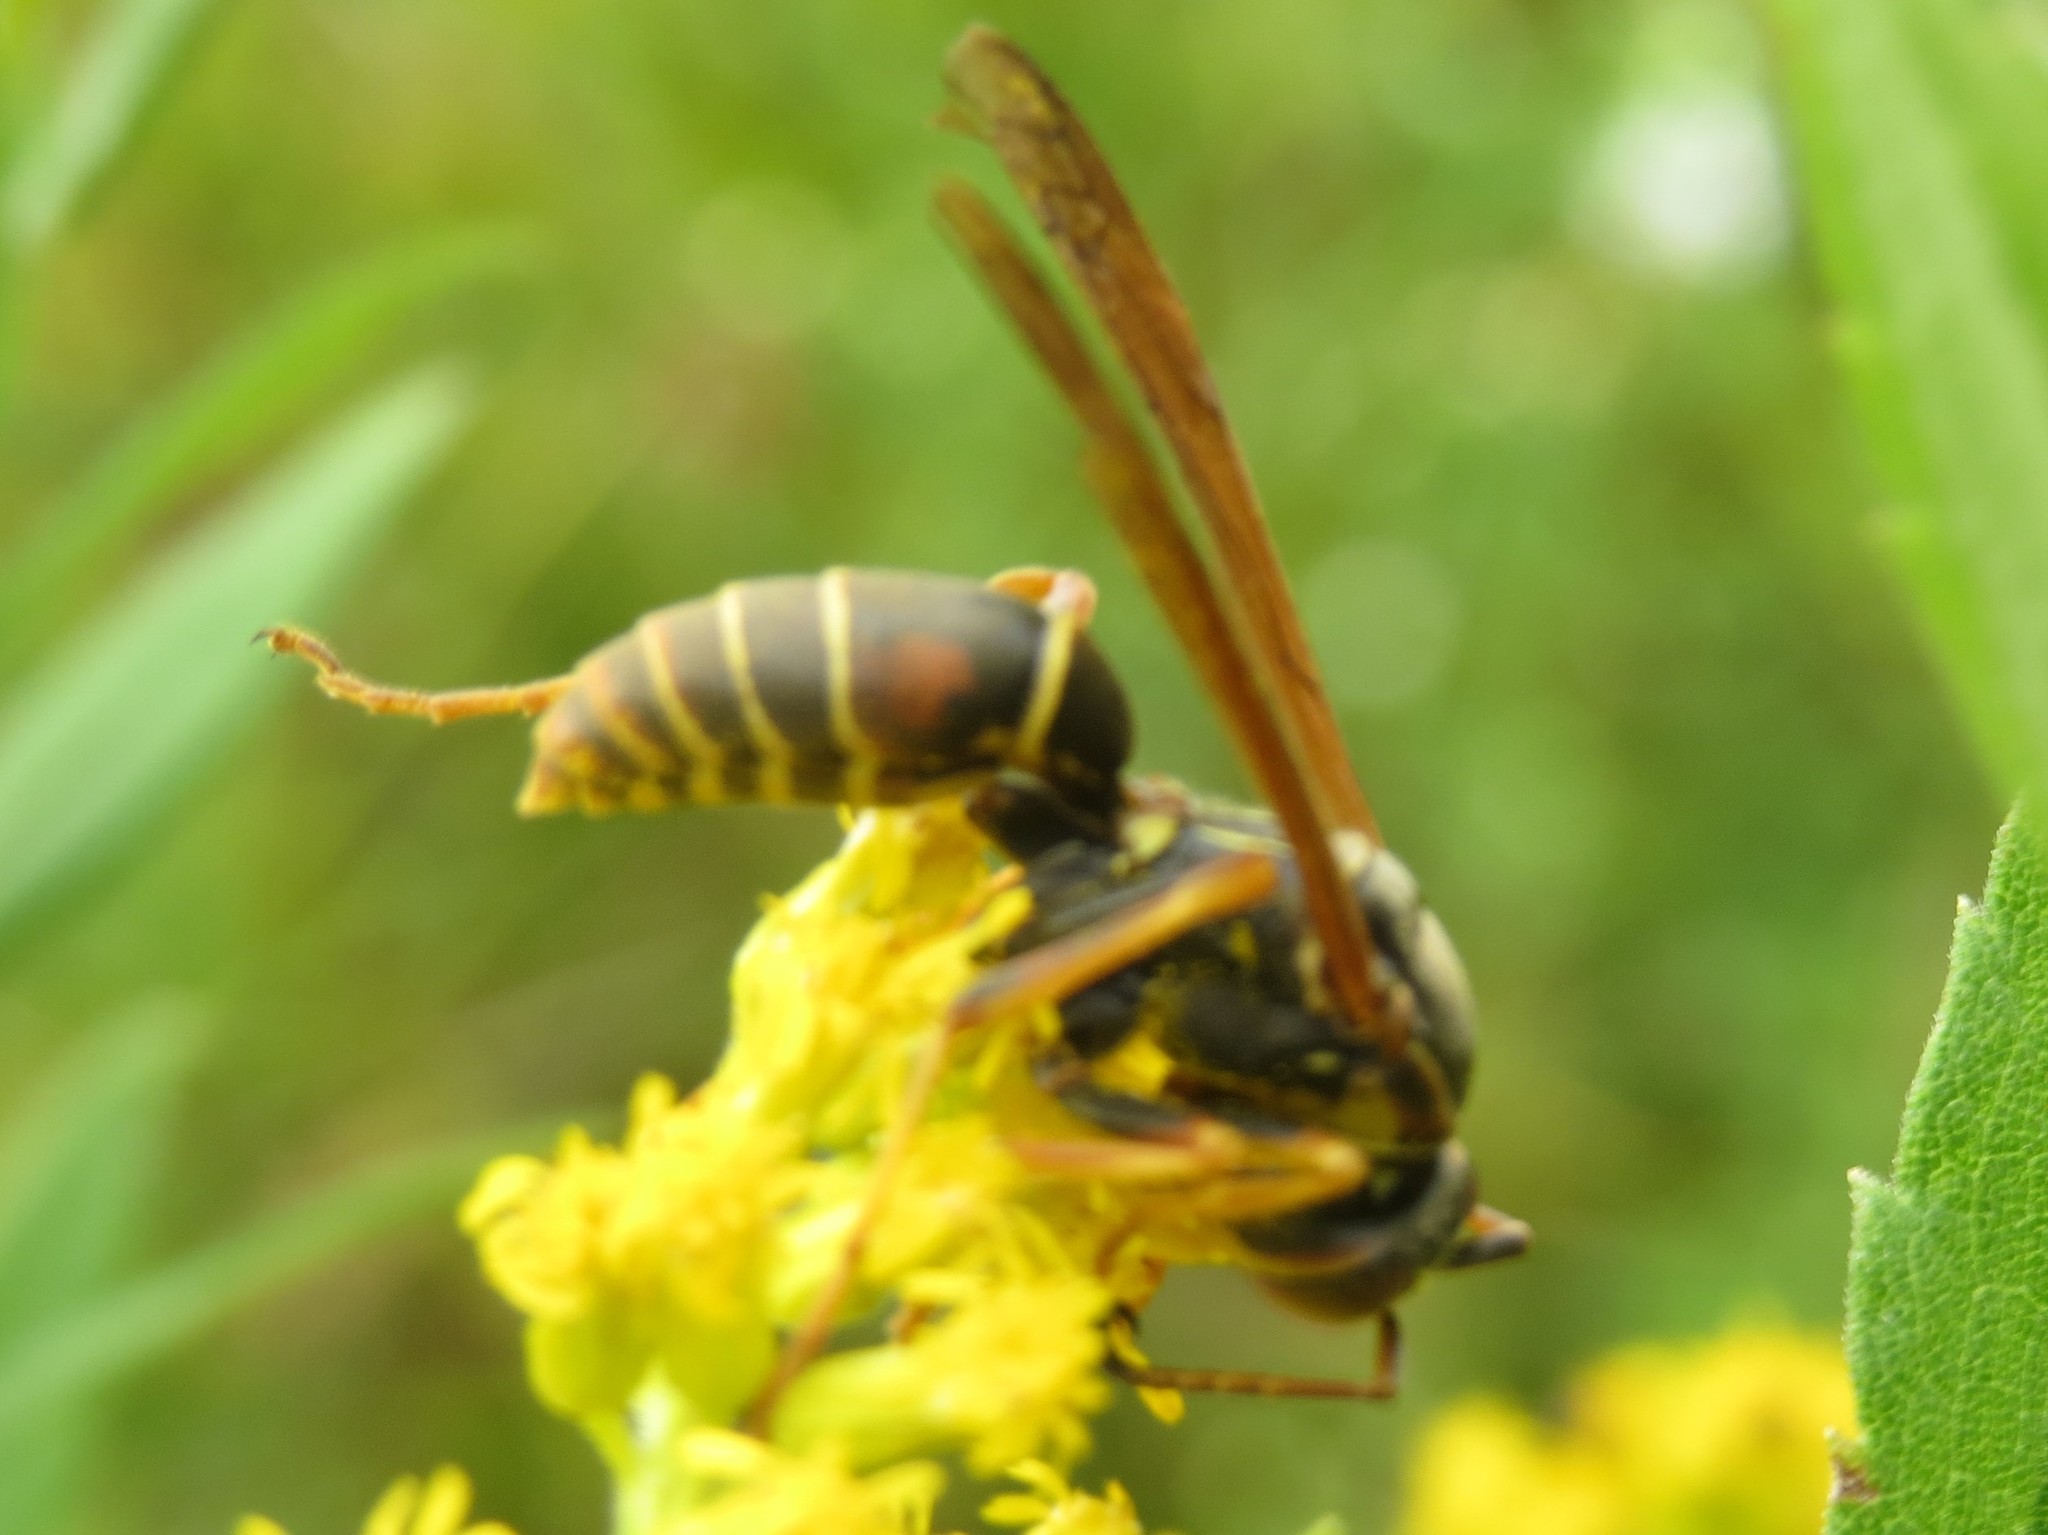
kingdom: Animalia
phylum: Arthropoda
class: Insecta
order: Hymenoptera
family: Eumenidae
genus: Polistes
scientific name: Polistes fuscatus
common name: Dark paper wasp
